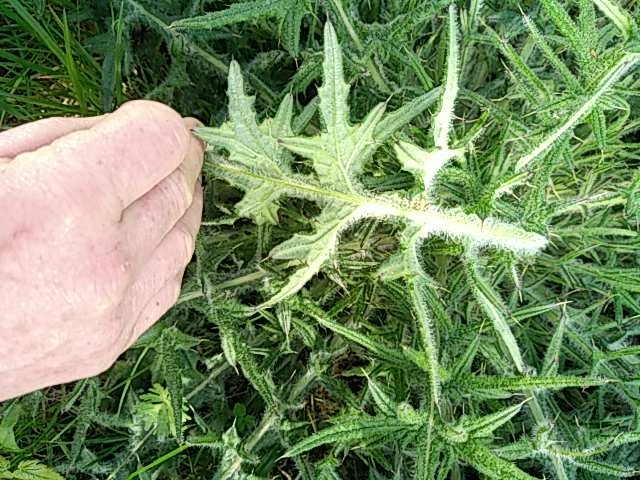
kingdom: Plantae
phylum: Tracheophyta
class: Magnoliopsida
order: Asterales
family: Asteraceae
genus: Cirsium
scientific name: Cirsium vulgare
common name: Bull thistle
